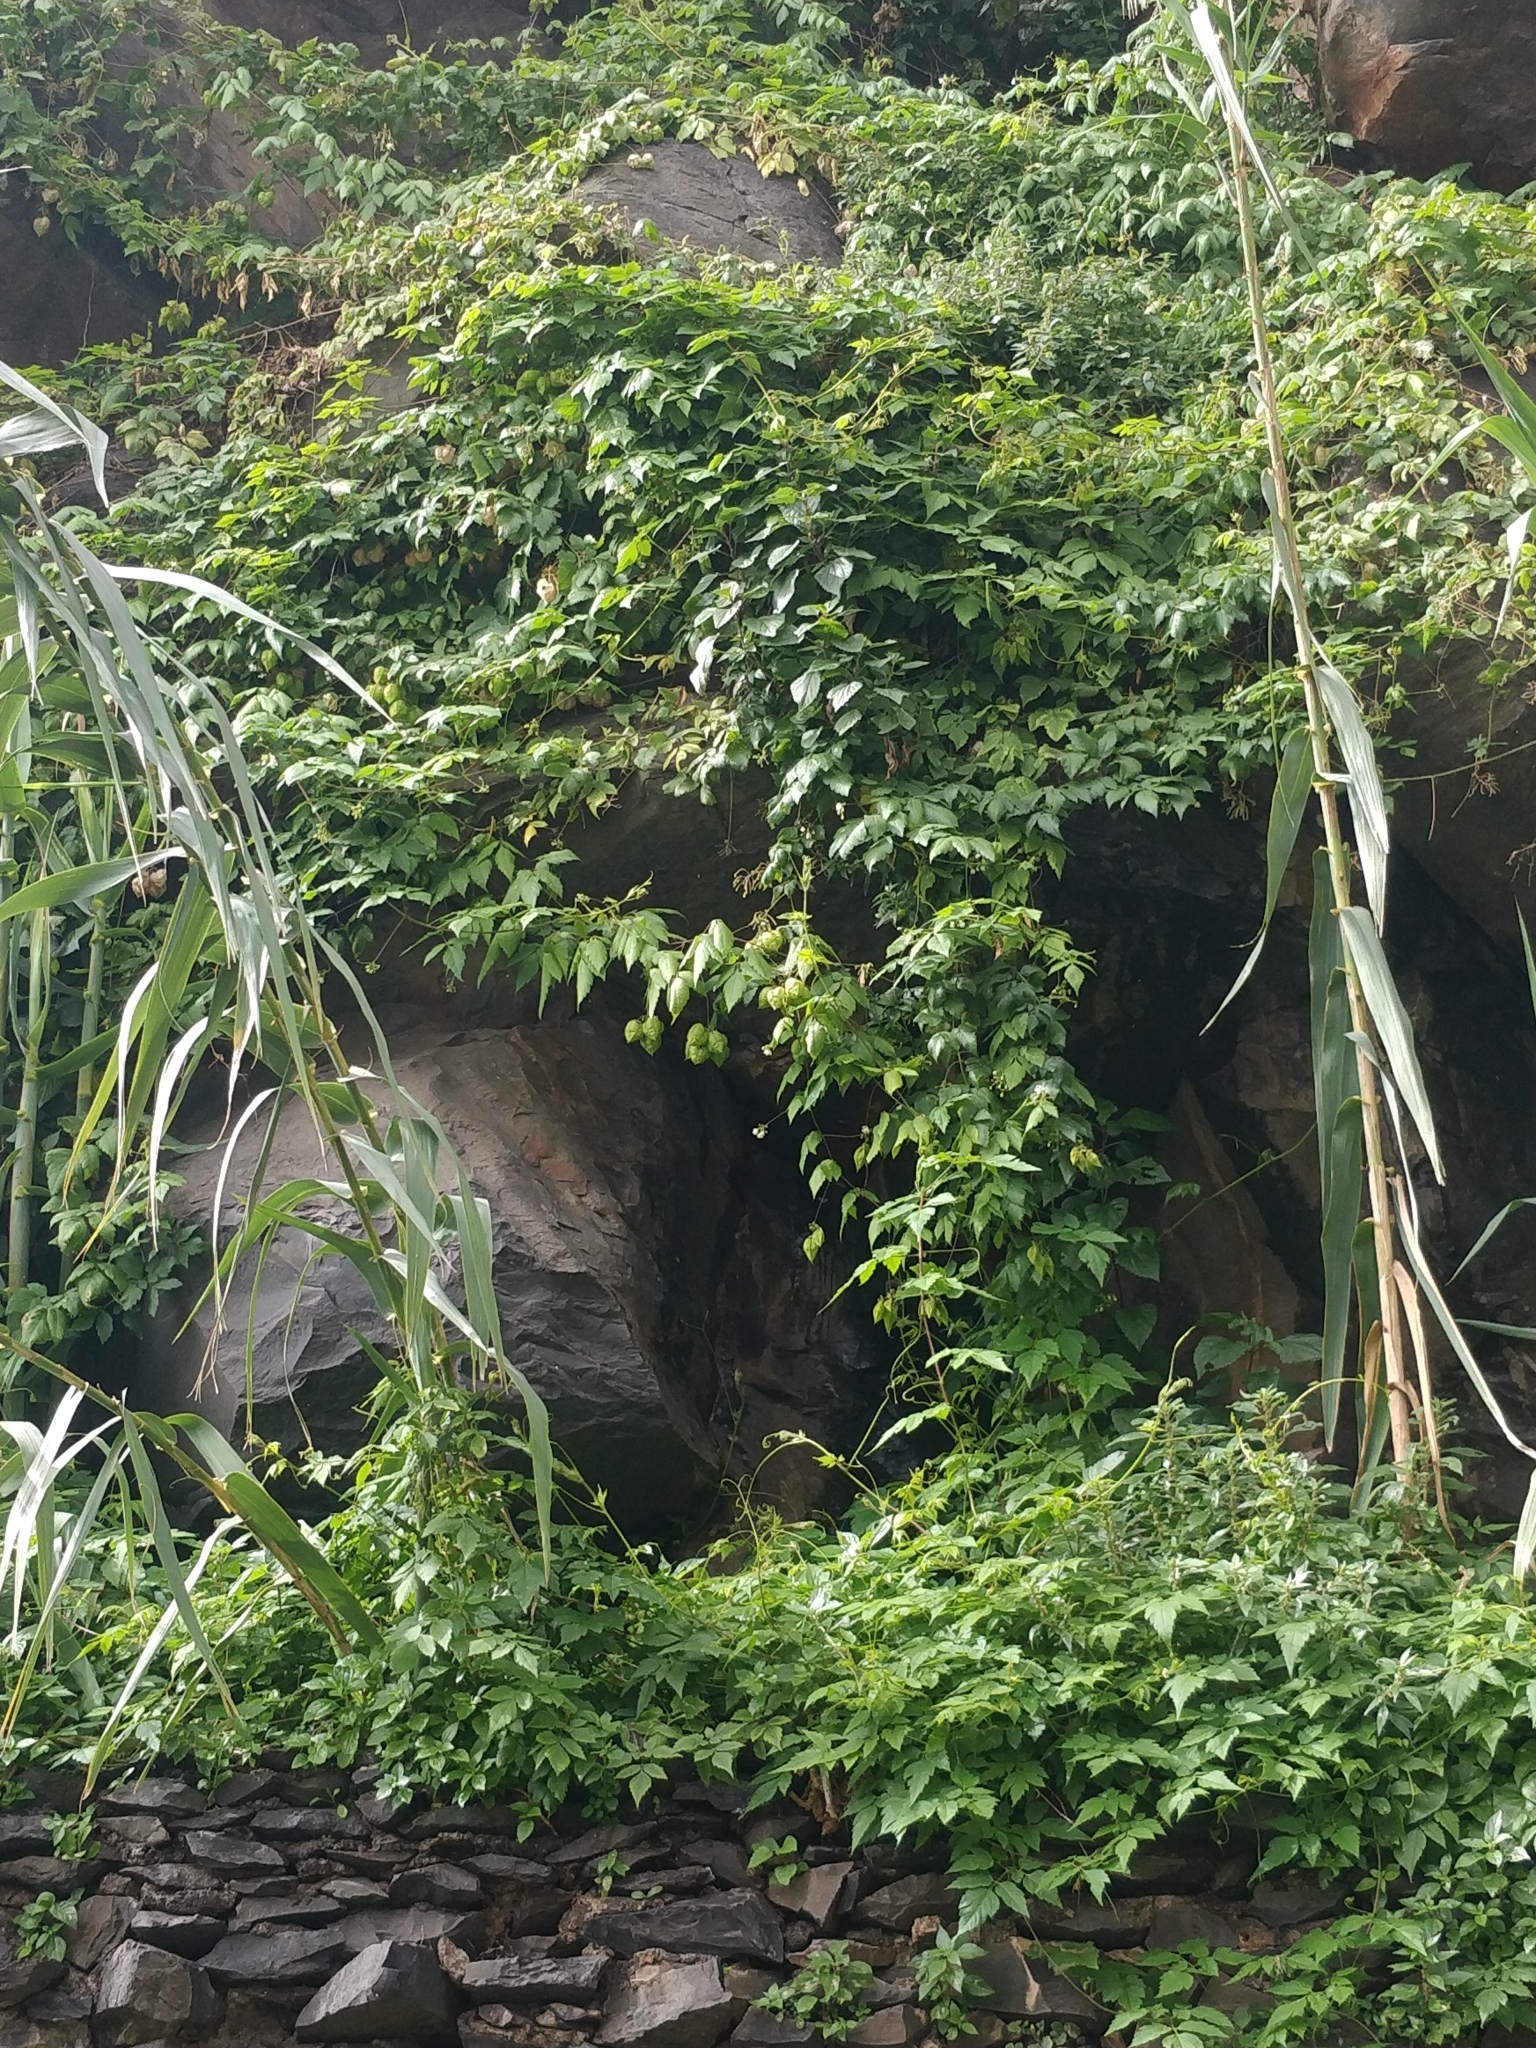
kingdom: Plantae
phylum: Tracheophyta
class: Magnoliopsida
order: Sapindales
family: Sapindaceae
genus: Cardiospermum
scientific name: Cardiospermum grandiflorum
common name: Balloon vine
